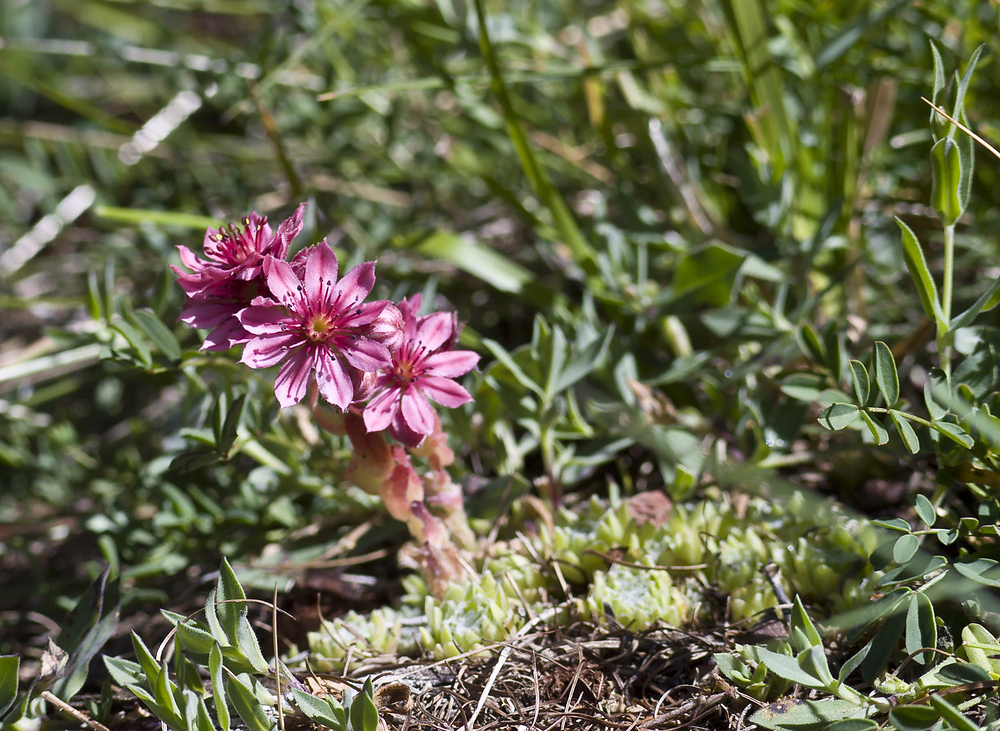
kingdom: Plantae
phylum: Tracheophyta
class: Magnoliopsida
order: Saxifragales
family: Crassulaceae
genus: Sempervivum
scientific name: Sempervivum arachnoideum
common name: Cobweb house-leek
